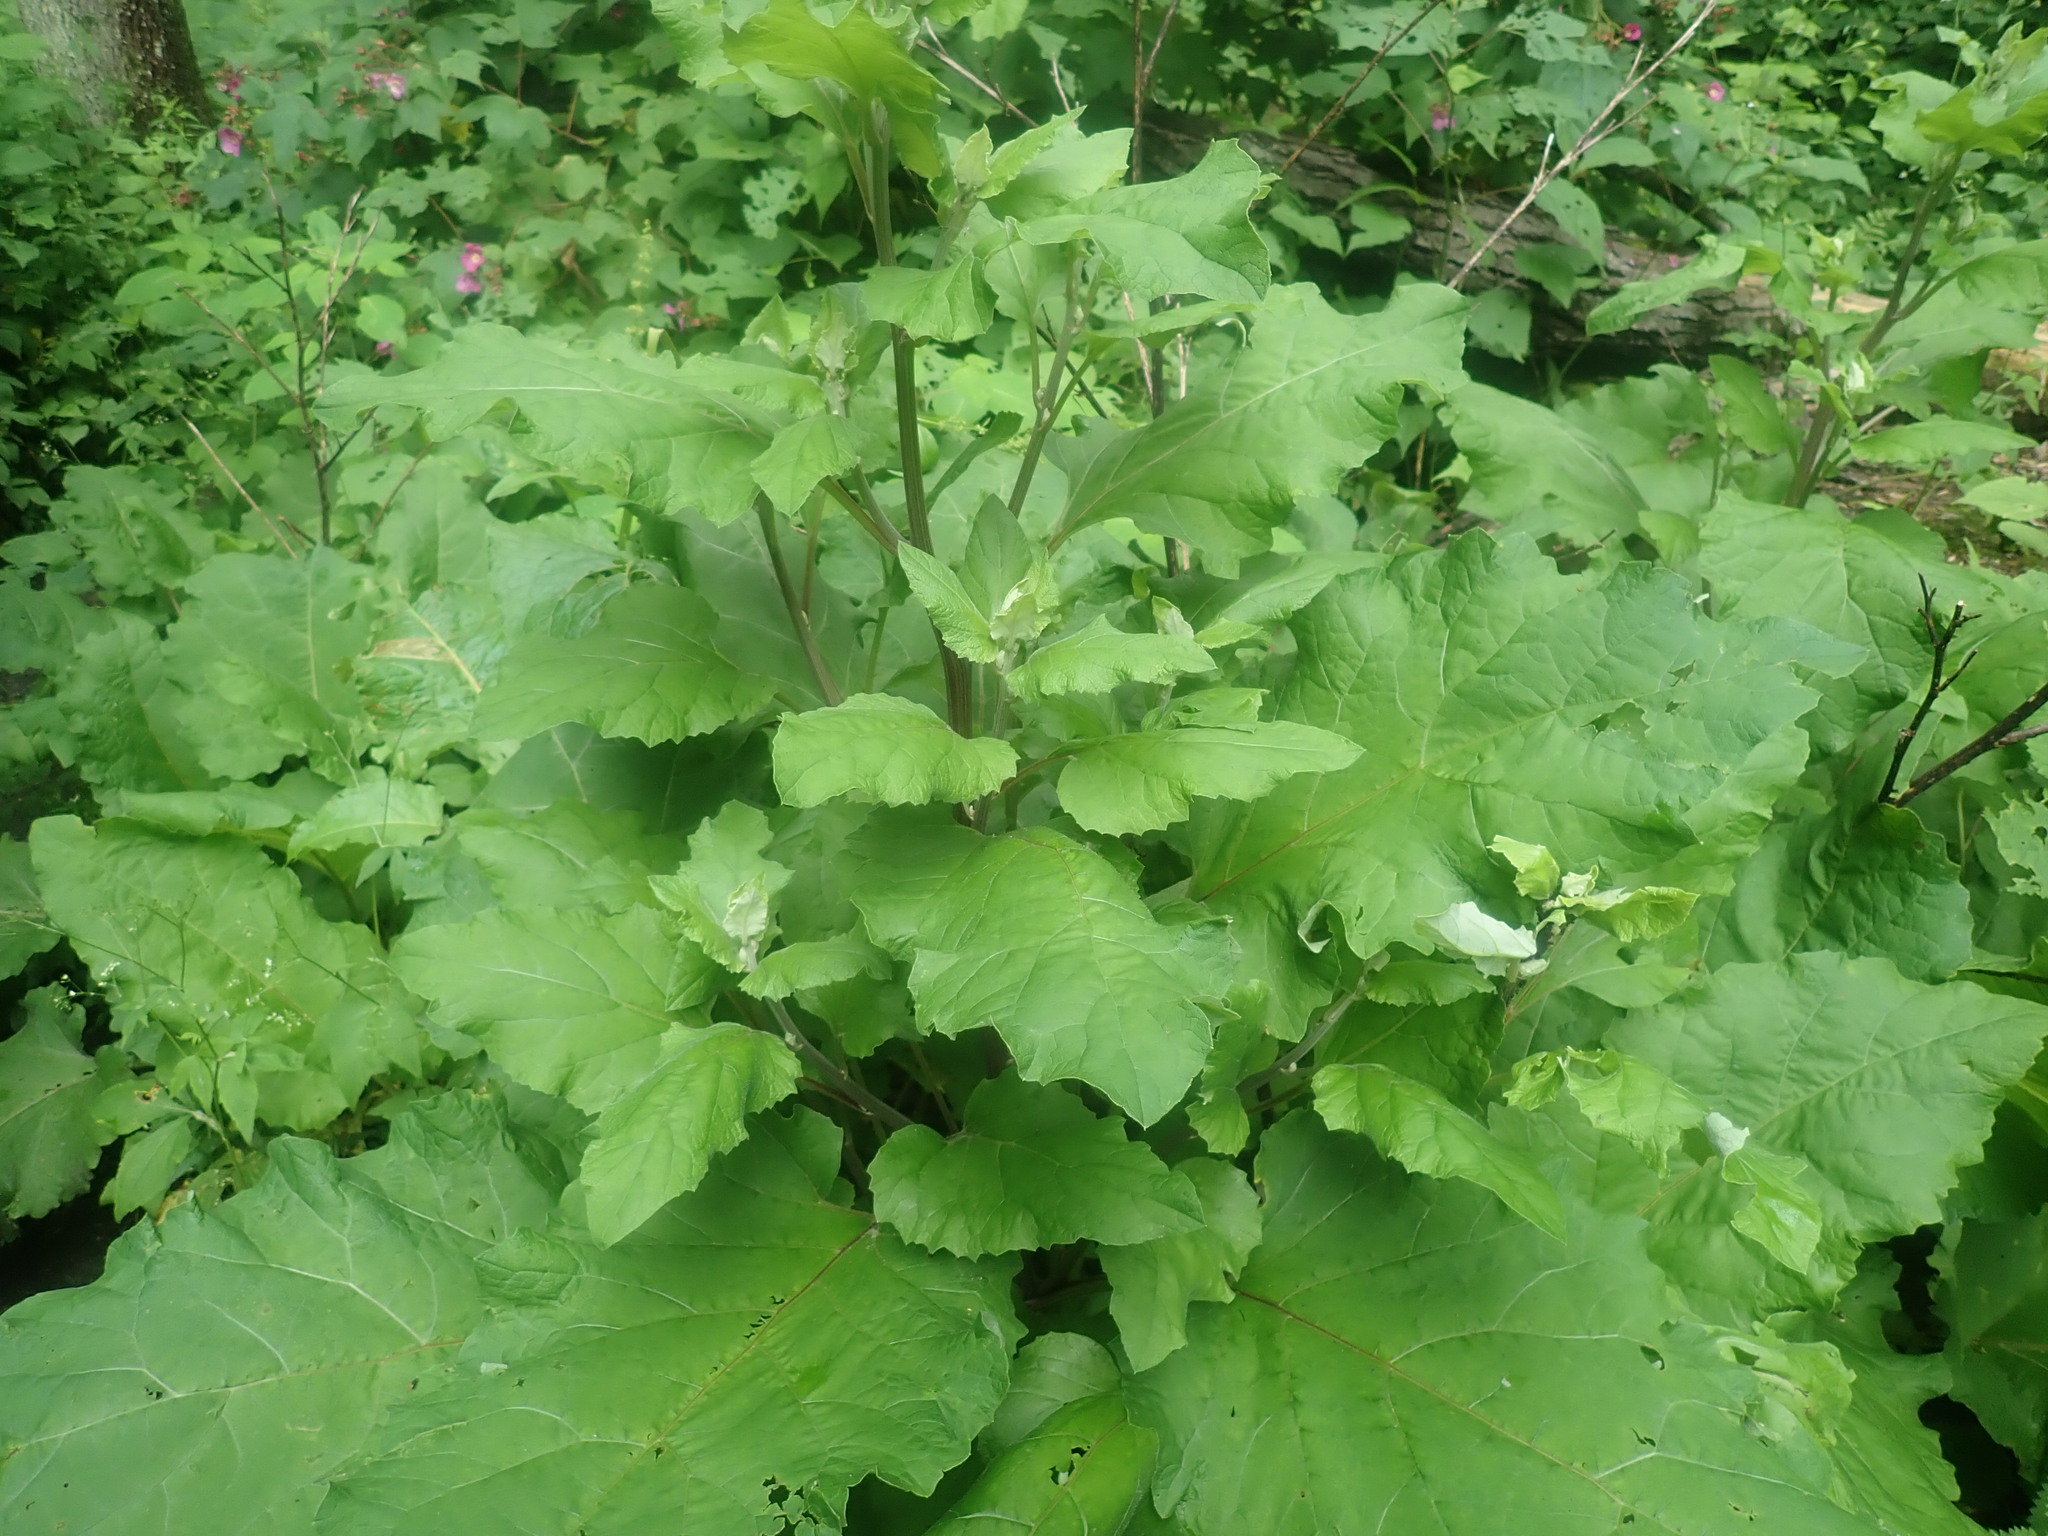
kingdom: Plantae
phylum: Tracheophyta
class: Magnoliopsida
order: Asterales
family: Asteraceae
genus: Arctium
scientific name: Arctium
